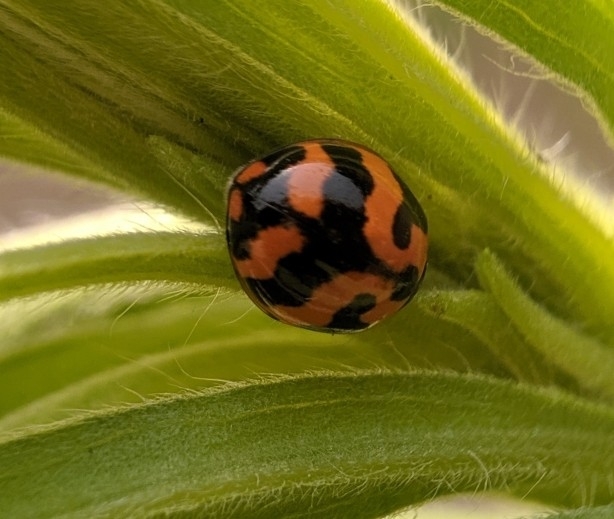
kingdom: Animalia
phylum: Arthropoda
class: Insecta
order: Coleoptera
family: Coccinellidae
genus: Coccinella
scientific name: Coccinella transversalis
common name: Transverse lady beetle
